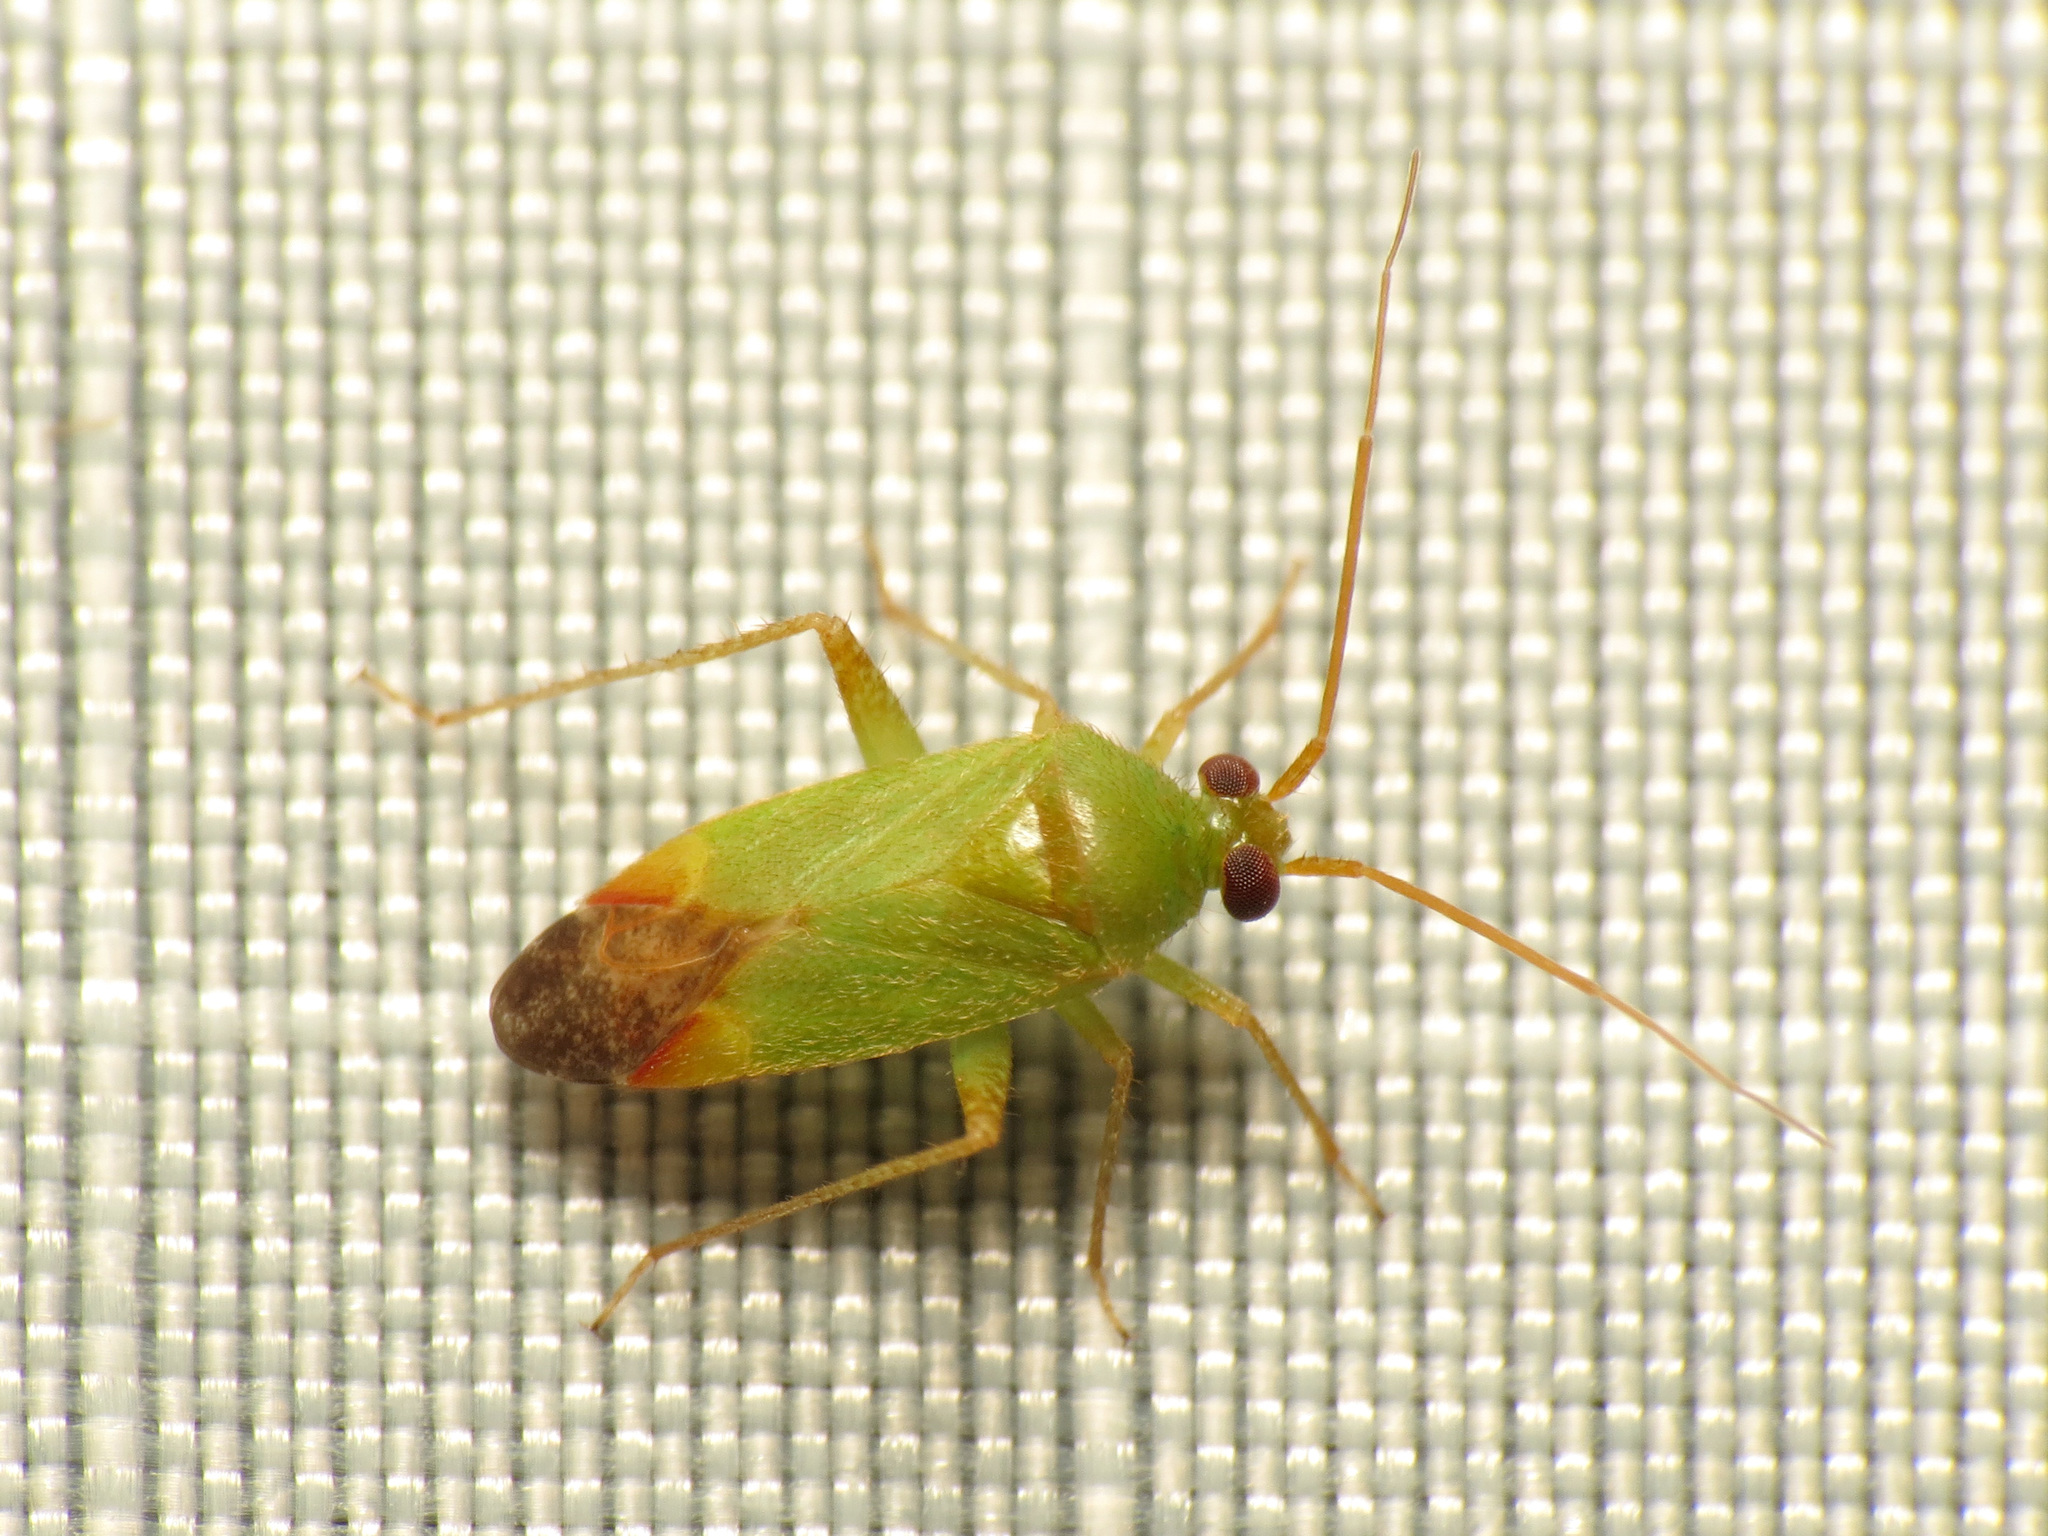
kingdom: Animalia
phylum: Arthropoda
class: Insecta
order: Hemiptera
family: Miridae
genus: Phytocoris
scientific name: Phytocoris vanduzeei
